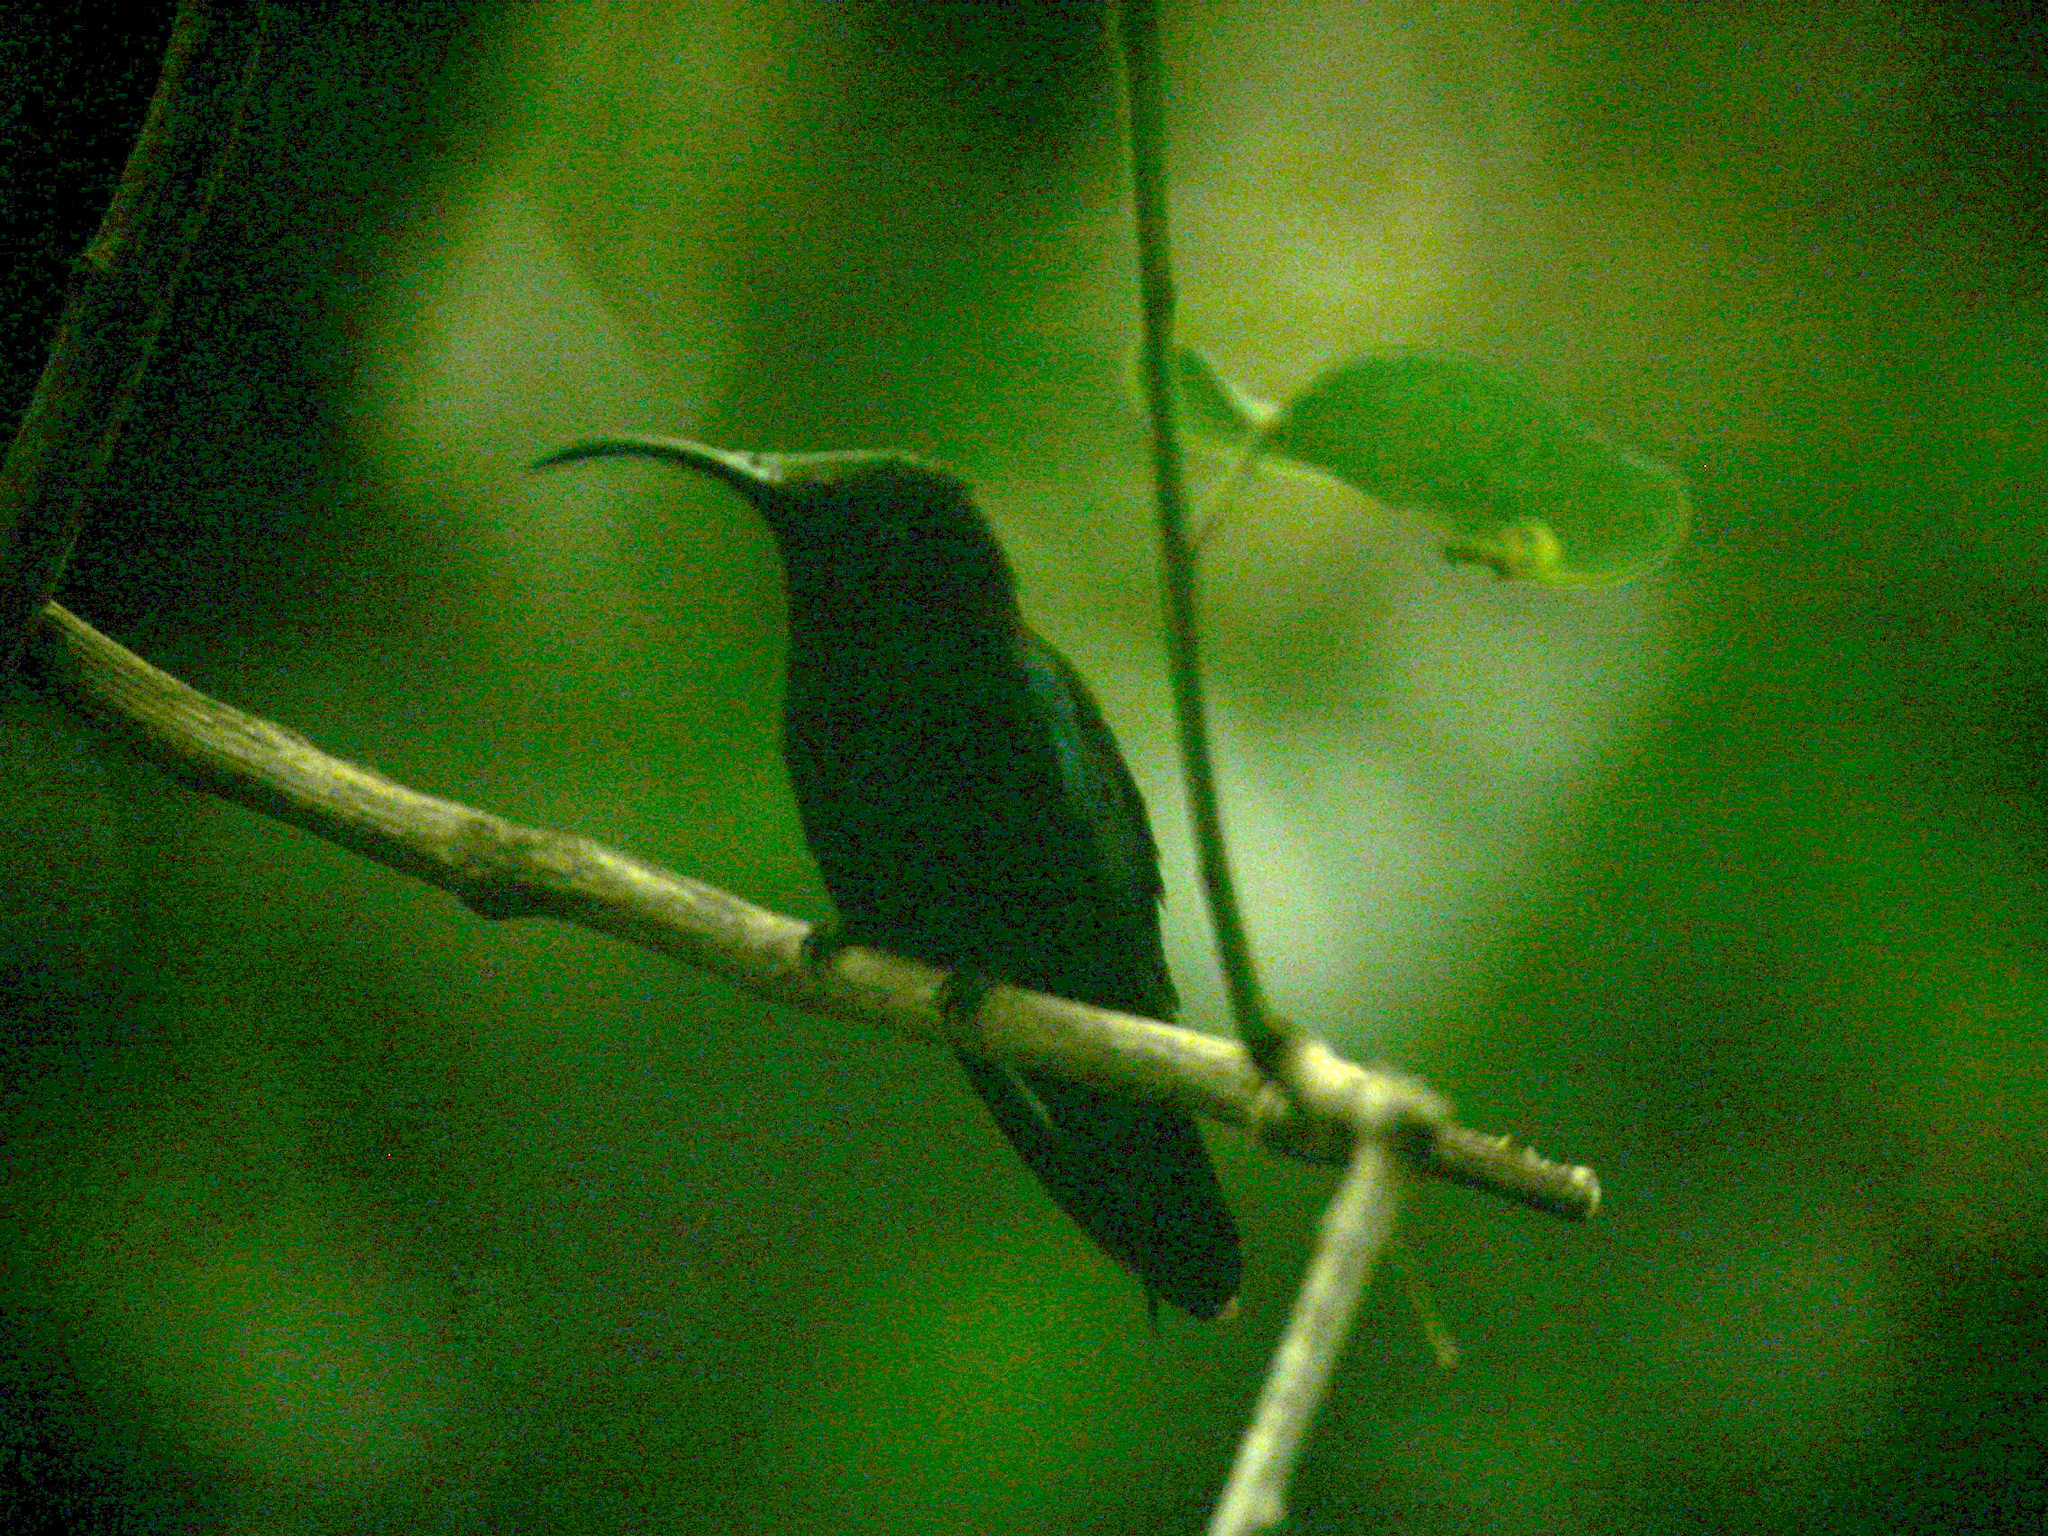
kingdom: Animalia
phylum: Chordata
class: Aves
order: Apodiformes
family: Trochilidae
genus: Eulampis
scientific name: Eulampis jugularis
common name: Purple-throated carib
